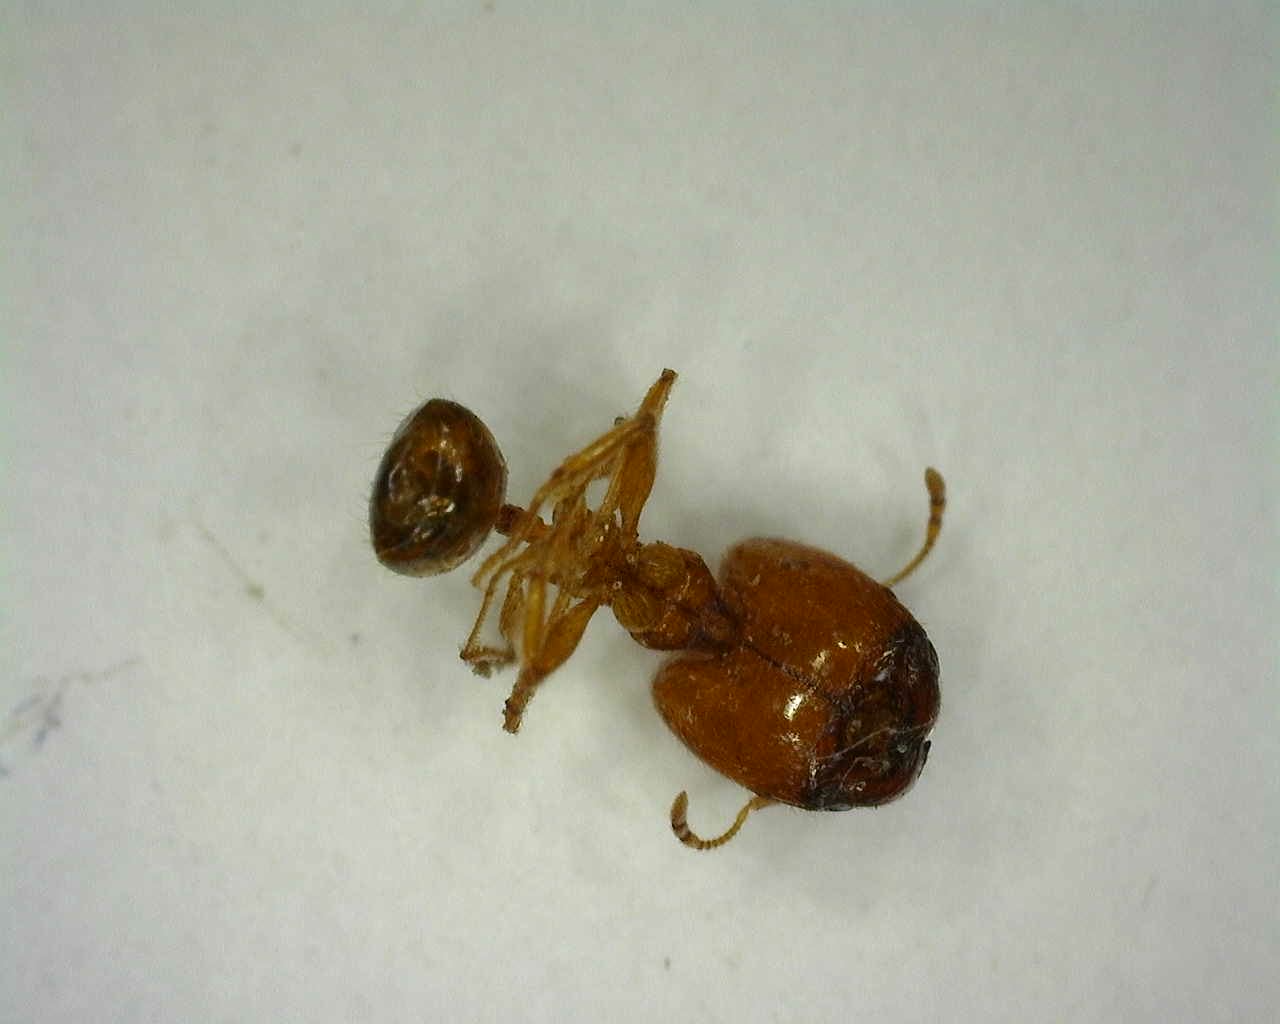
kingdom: Animalia
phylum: Arthropoda
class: Insecta
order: Hymenoptera
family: Formicidae
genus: Pheidole
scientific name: Pheidole pallidula
